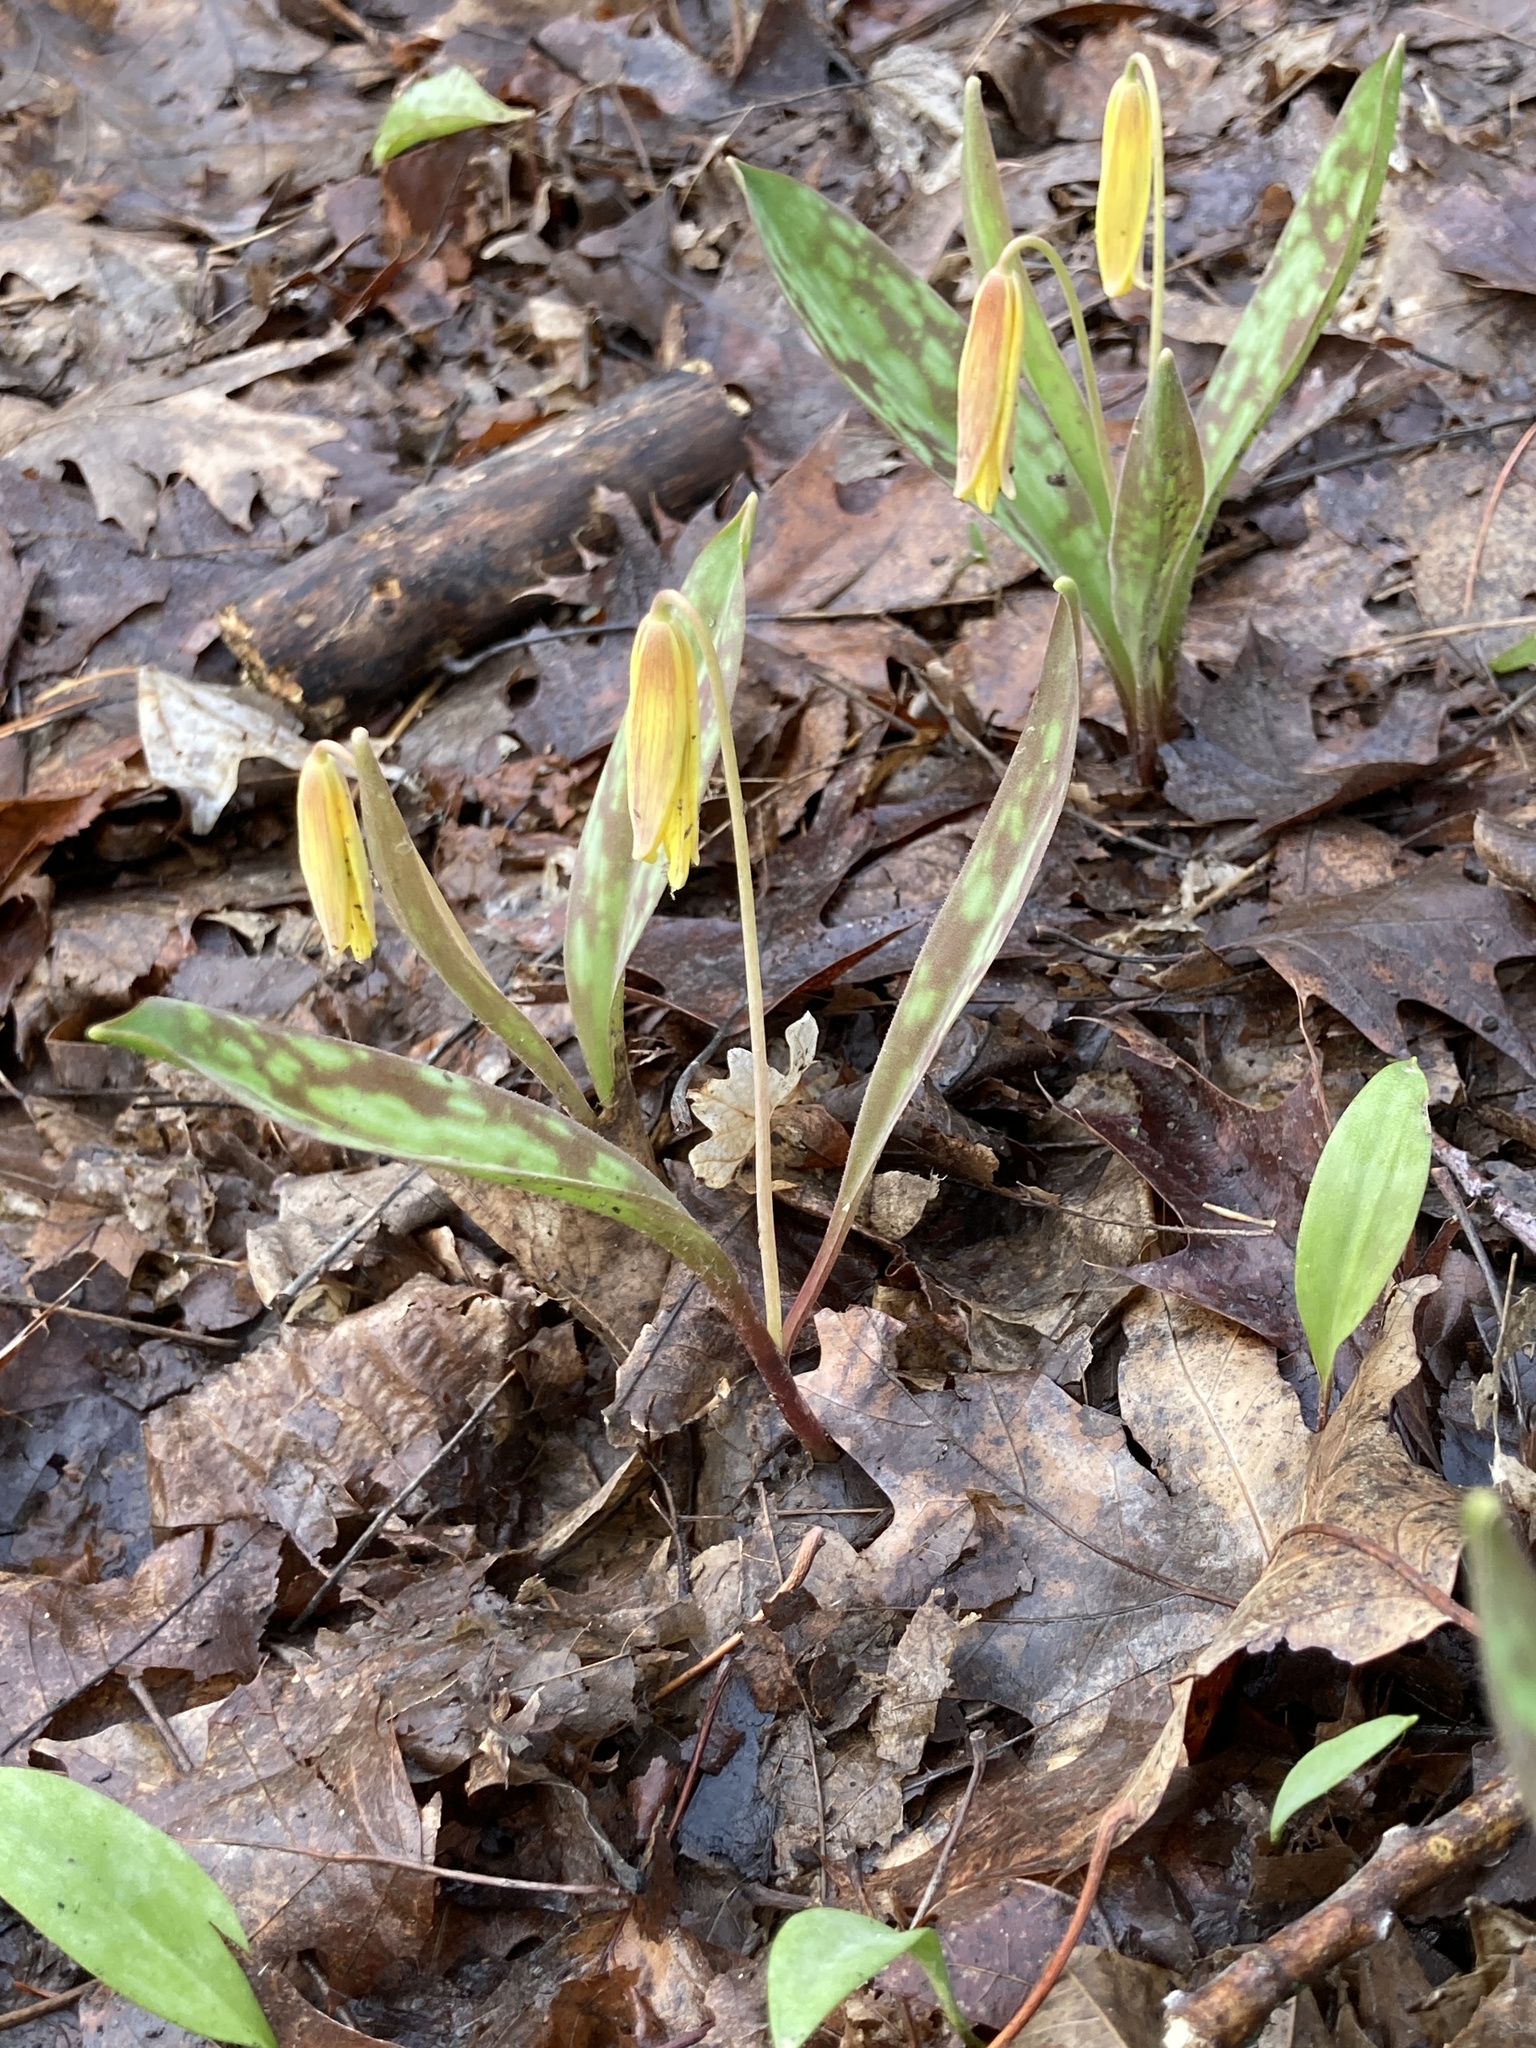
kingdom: Plantae
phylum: Tracheophyta
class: Liliopsida
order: Liliales
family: Liliaceae
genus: Erythronium
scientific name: Erythronium americanum
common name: Yellow adder's-tongue
